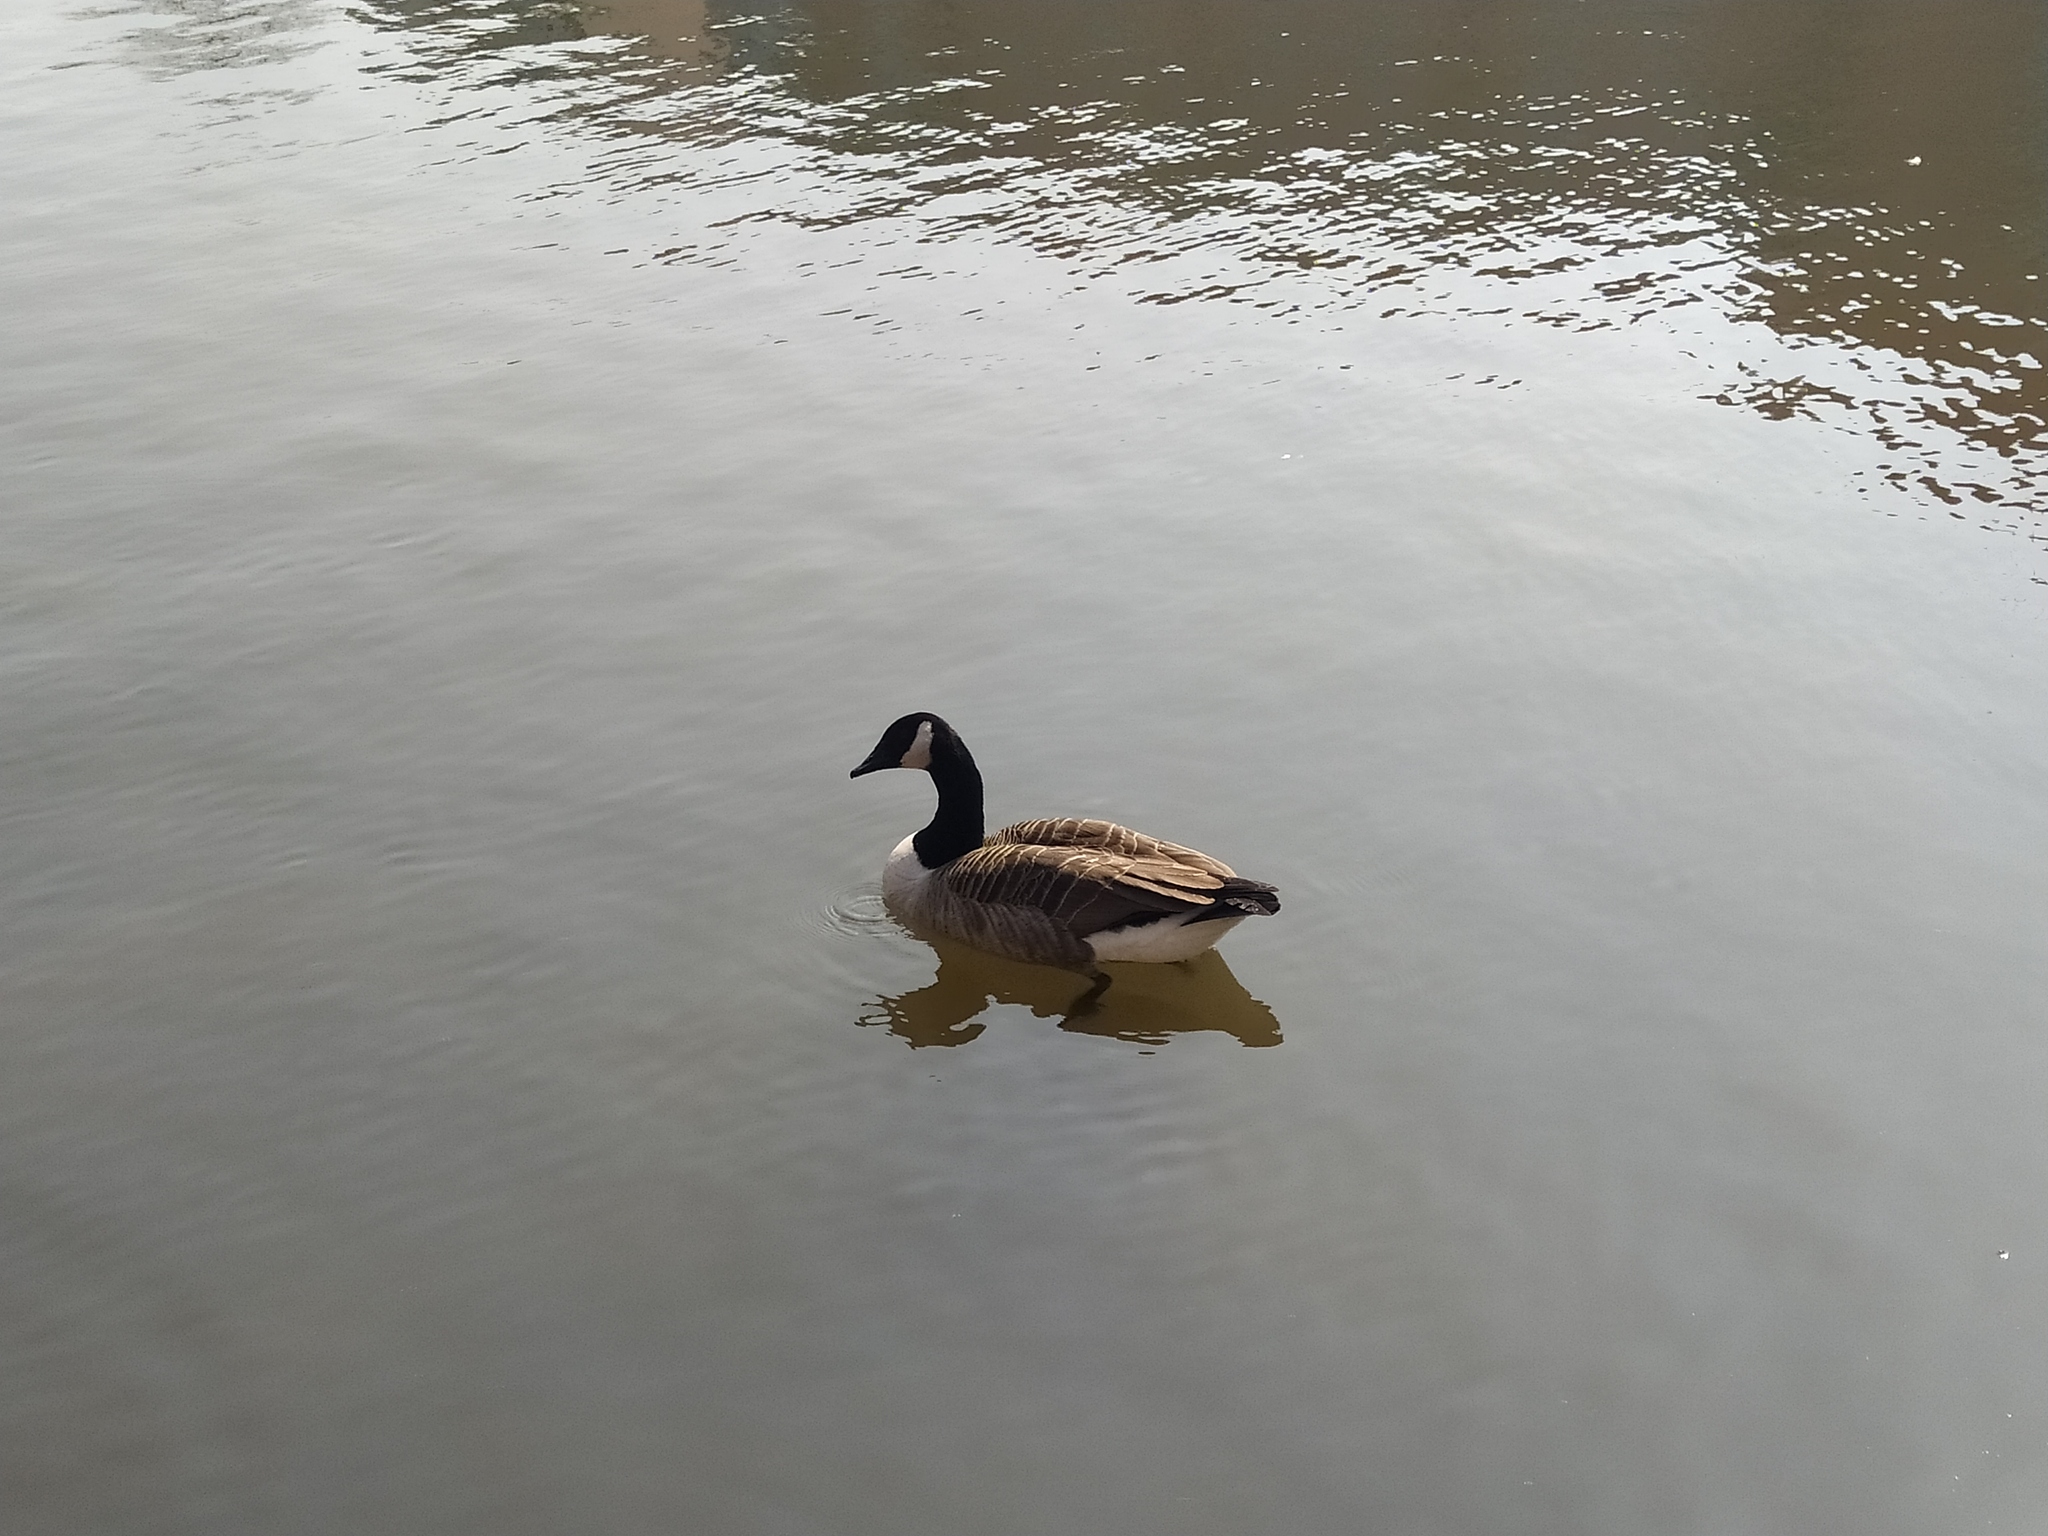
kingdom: Animalia
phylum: Chordata
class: Aves
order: Anseriformes
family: Anatidae
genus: Branta
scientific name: Branta canadensis
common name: Canada goose
